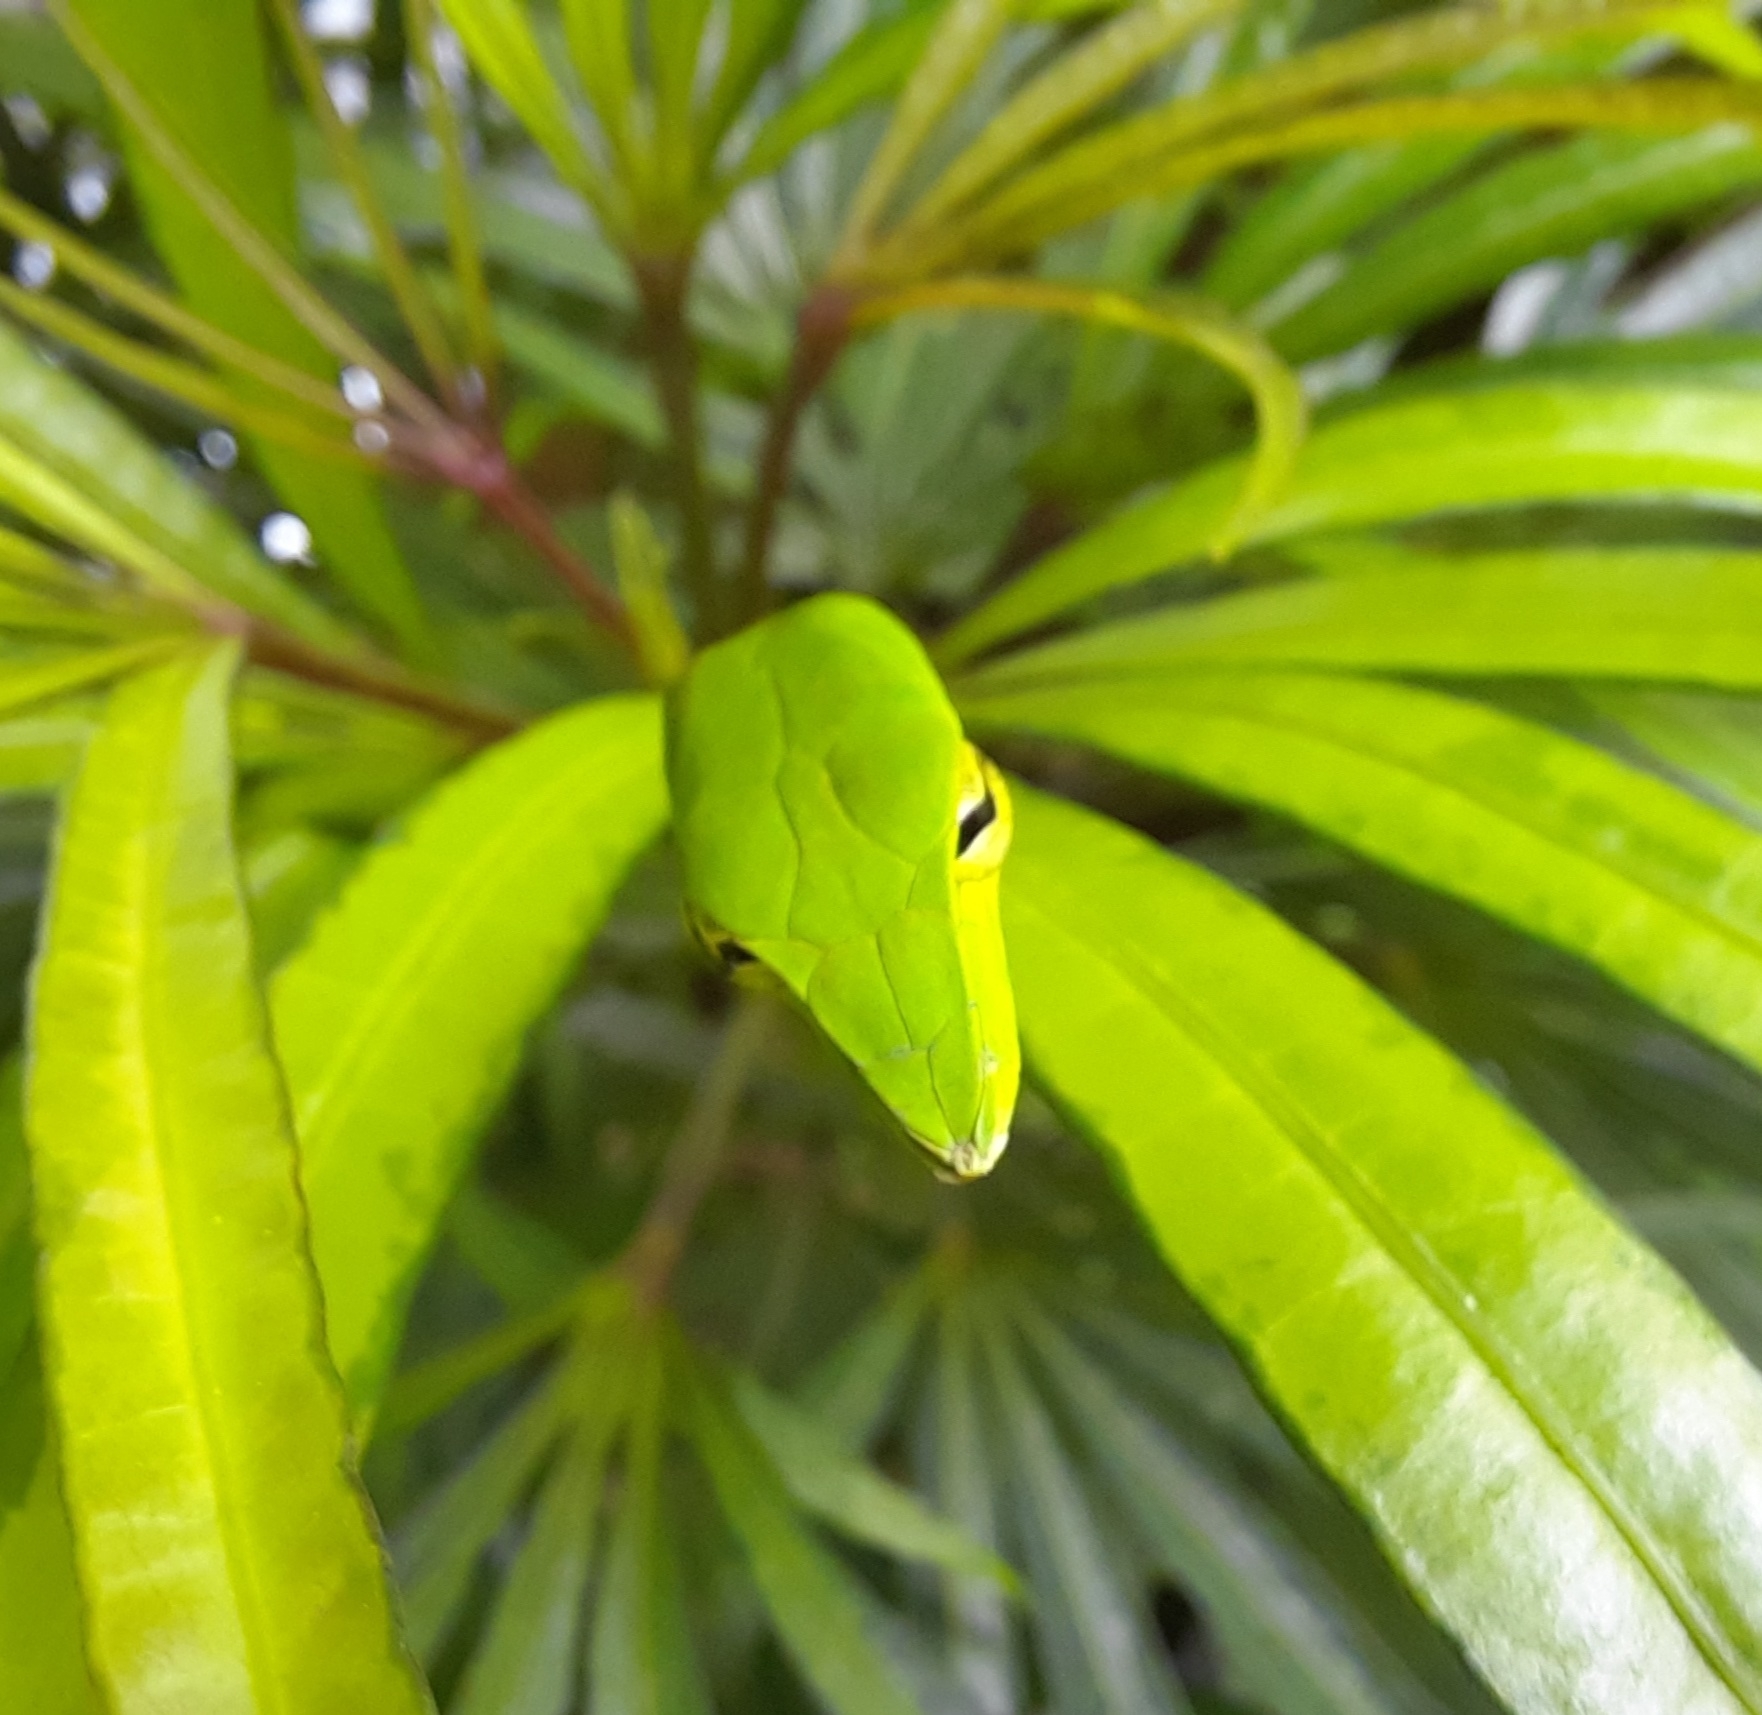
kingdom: Animalia
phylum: Chordata
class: Squamata
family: Colubridae
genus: Ahaetulla
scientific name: Ahaetulla isabellina
